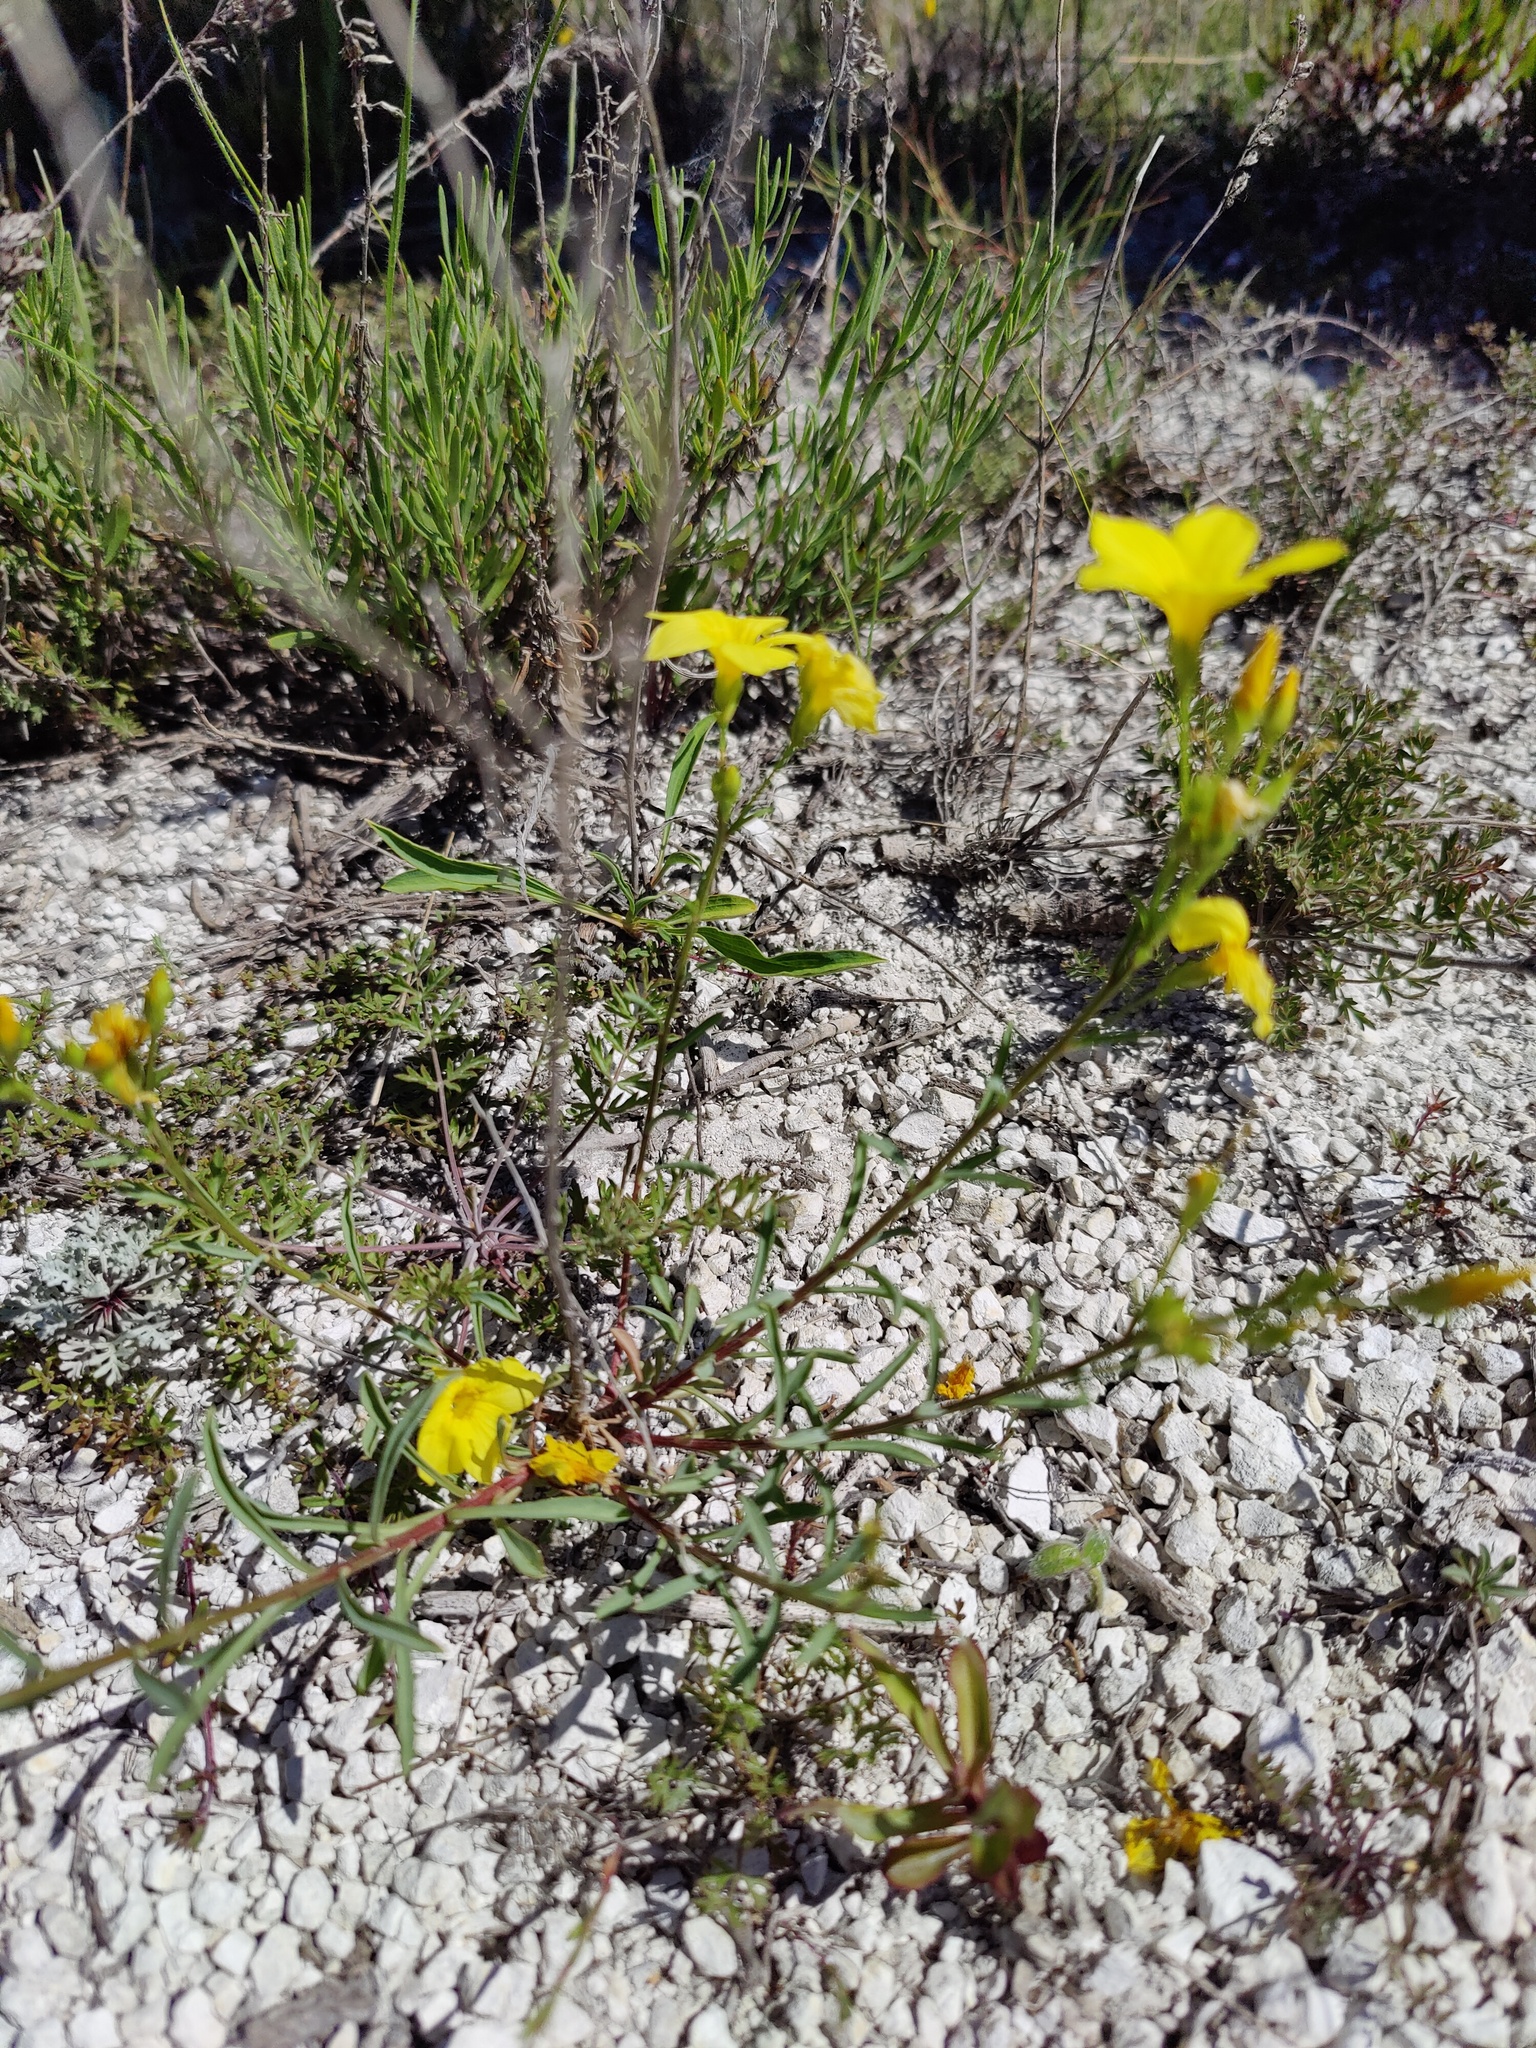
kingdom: Plantae
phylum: Tracheophyta
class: Magnoliopsida
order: Malpighiales
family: Linaceae
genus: Linum
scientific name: Linum ucranicum
